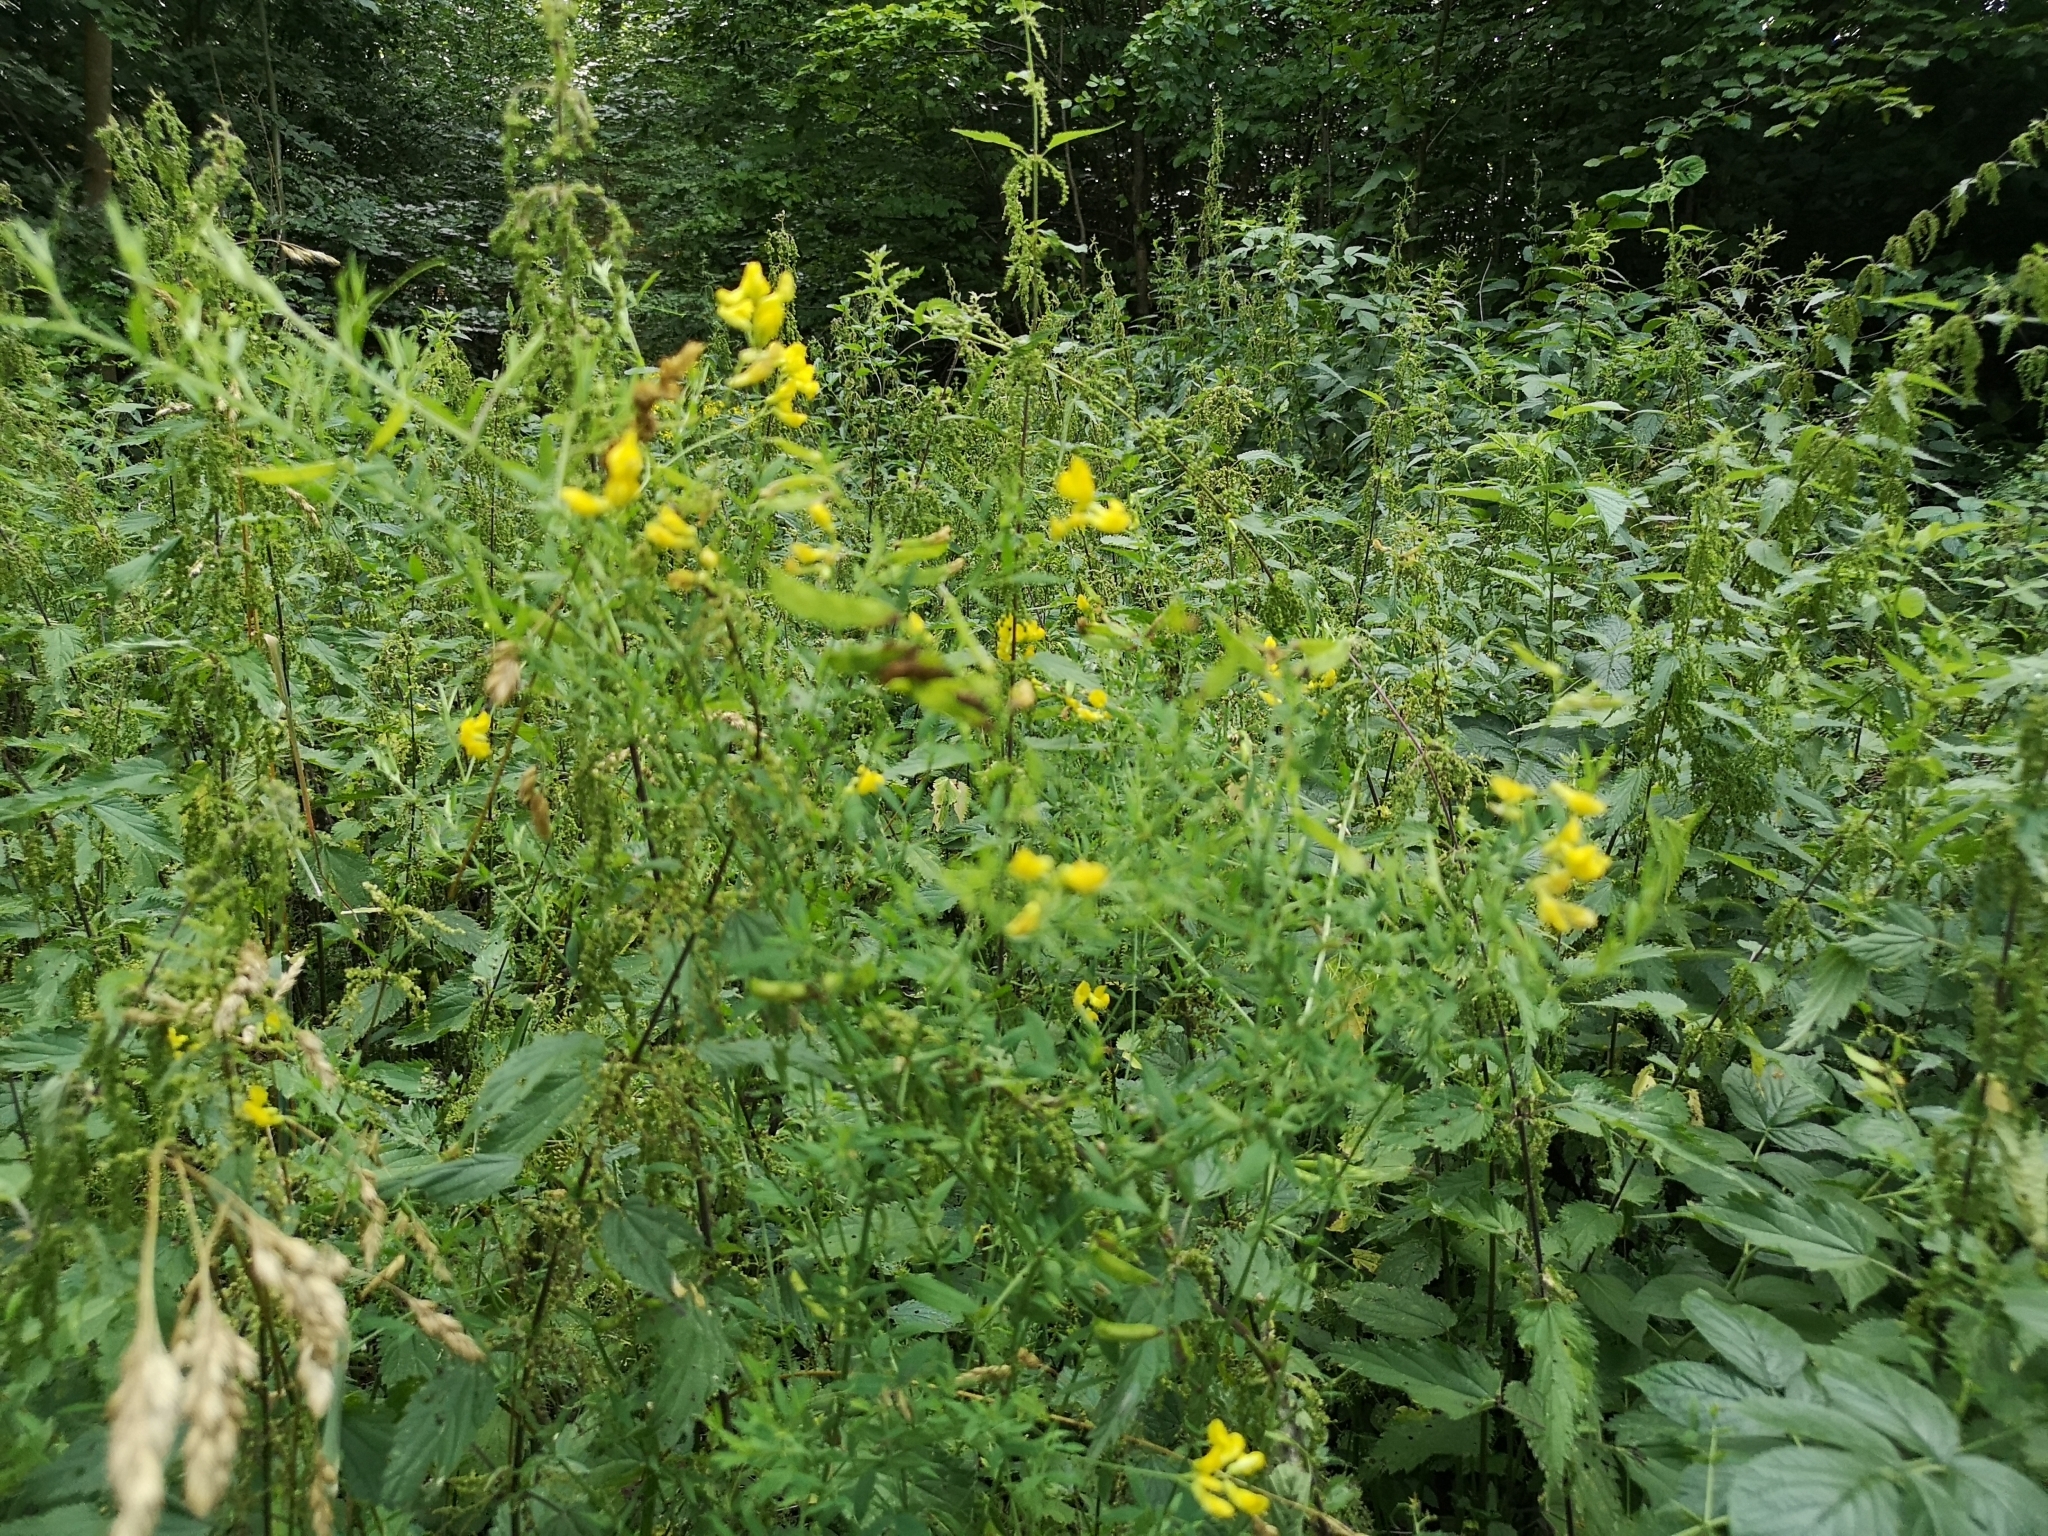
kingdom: Plantae
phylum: Tracheophyta
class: Magnoliopsida
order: Fabales
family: Fabaceae
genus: Lathyrus
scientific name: Lathyrus pratensis
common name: Meadow vetchling
